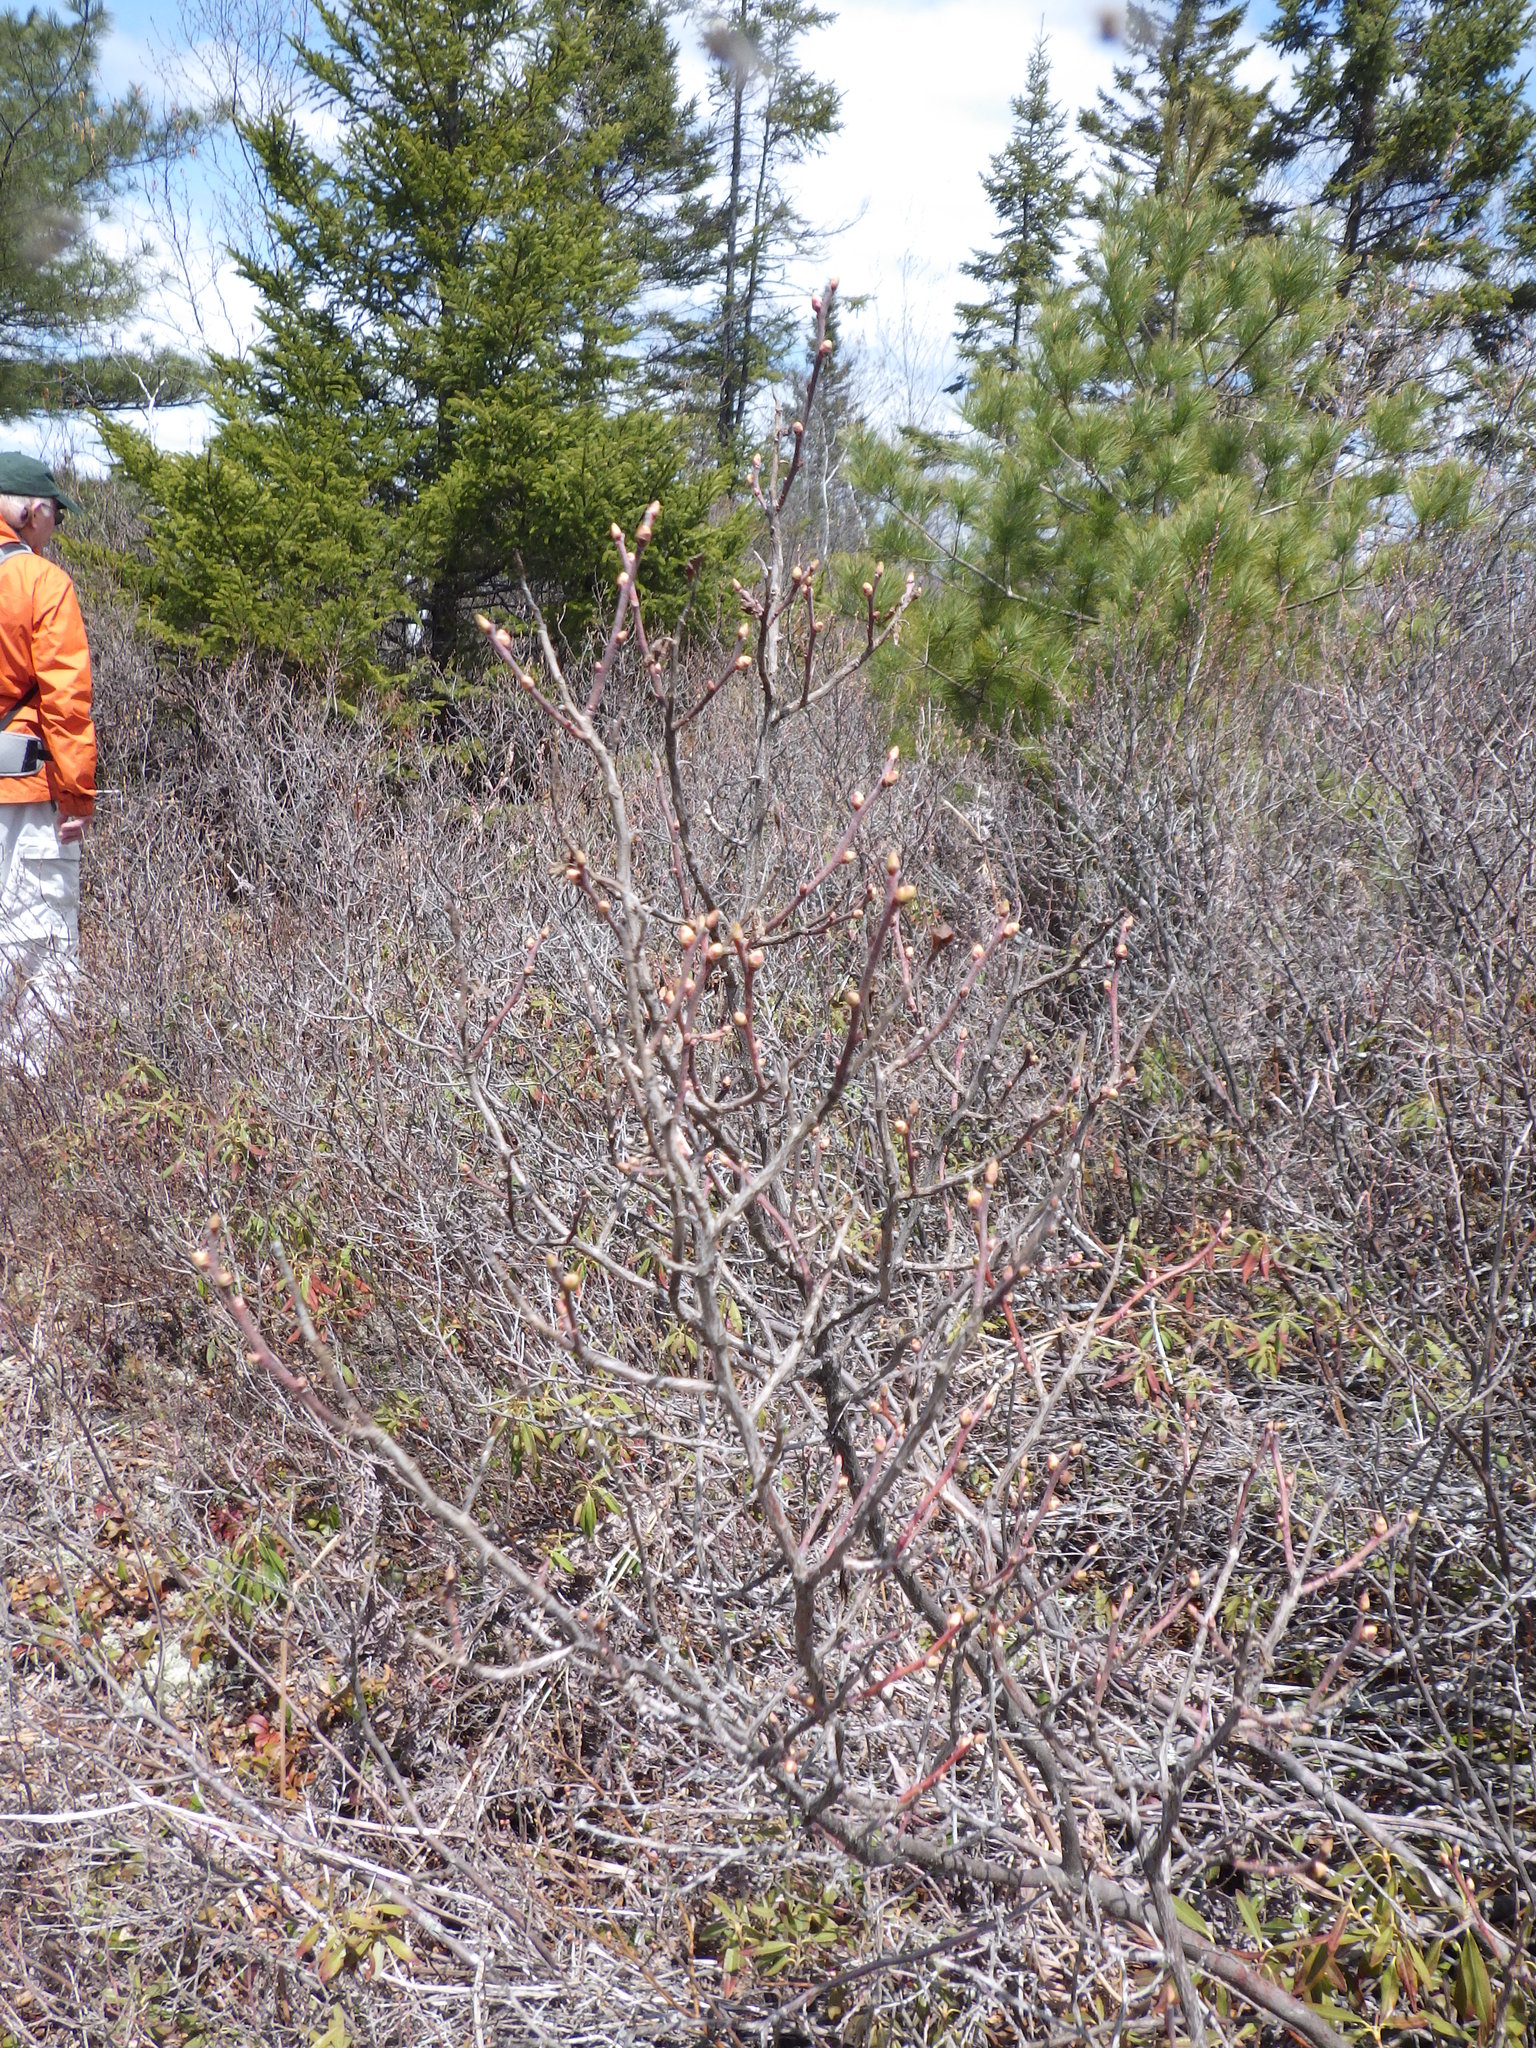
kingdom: Plantae
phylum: Tracheophyta
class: Magnoliopsida
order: Ericales
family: Ericaceae
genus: Gaylussacia
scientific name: Gaylussacia baccata
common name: Black huckleberry
